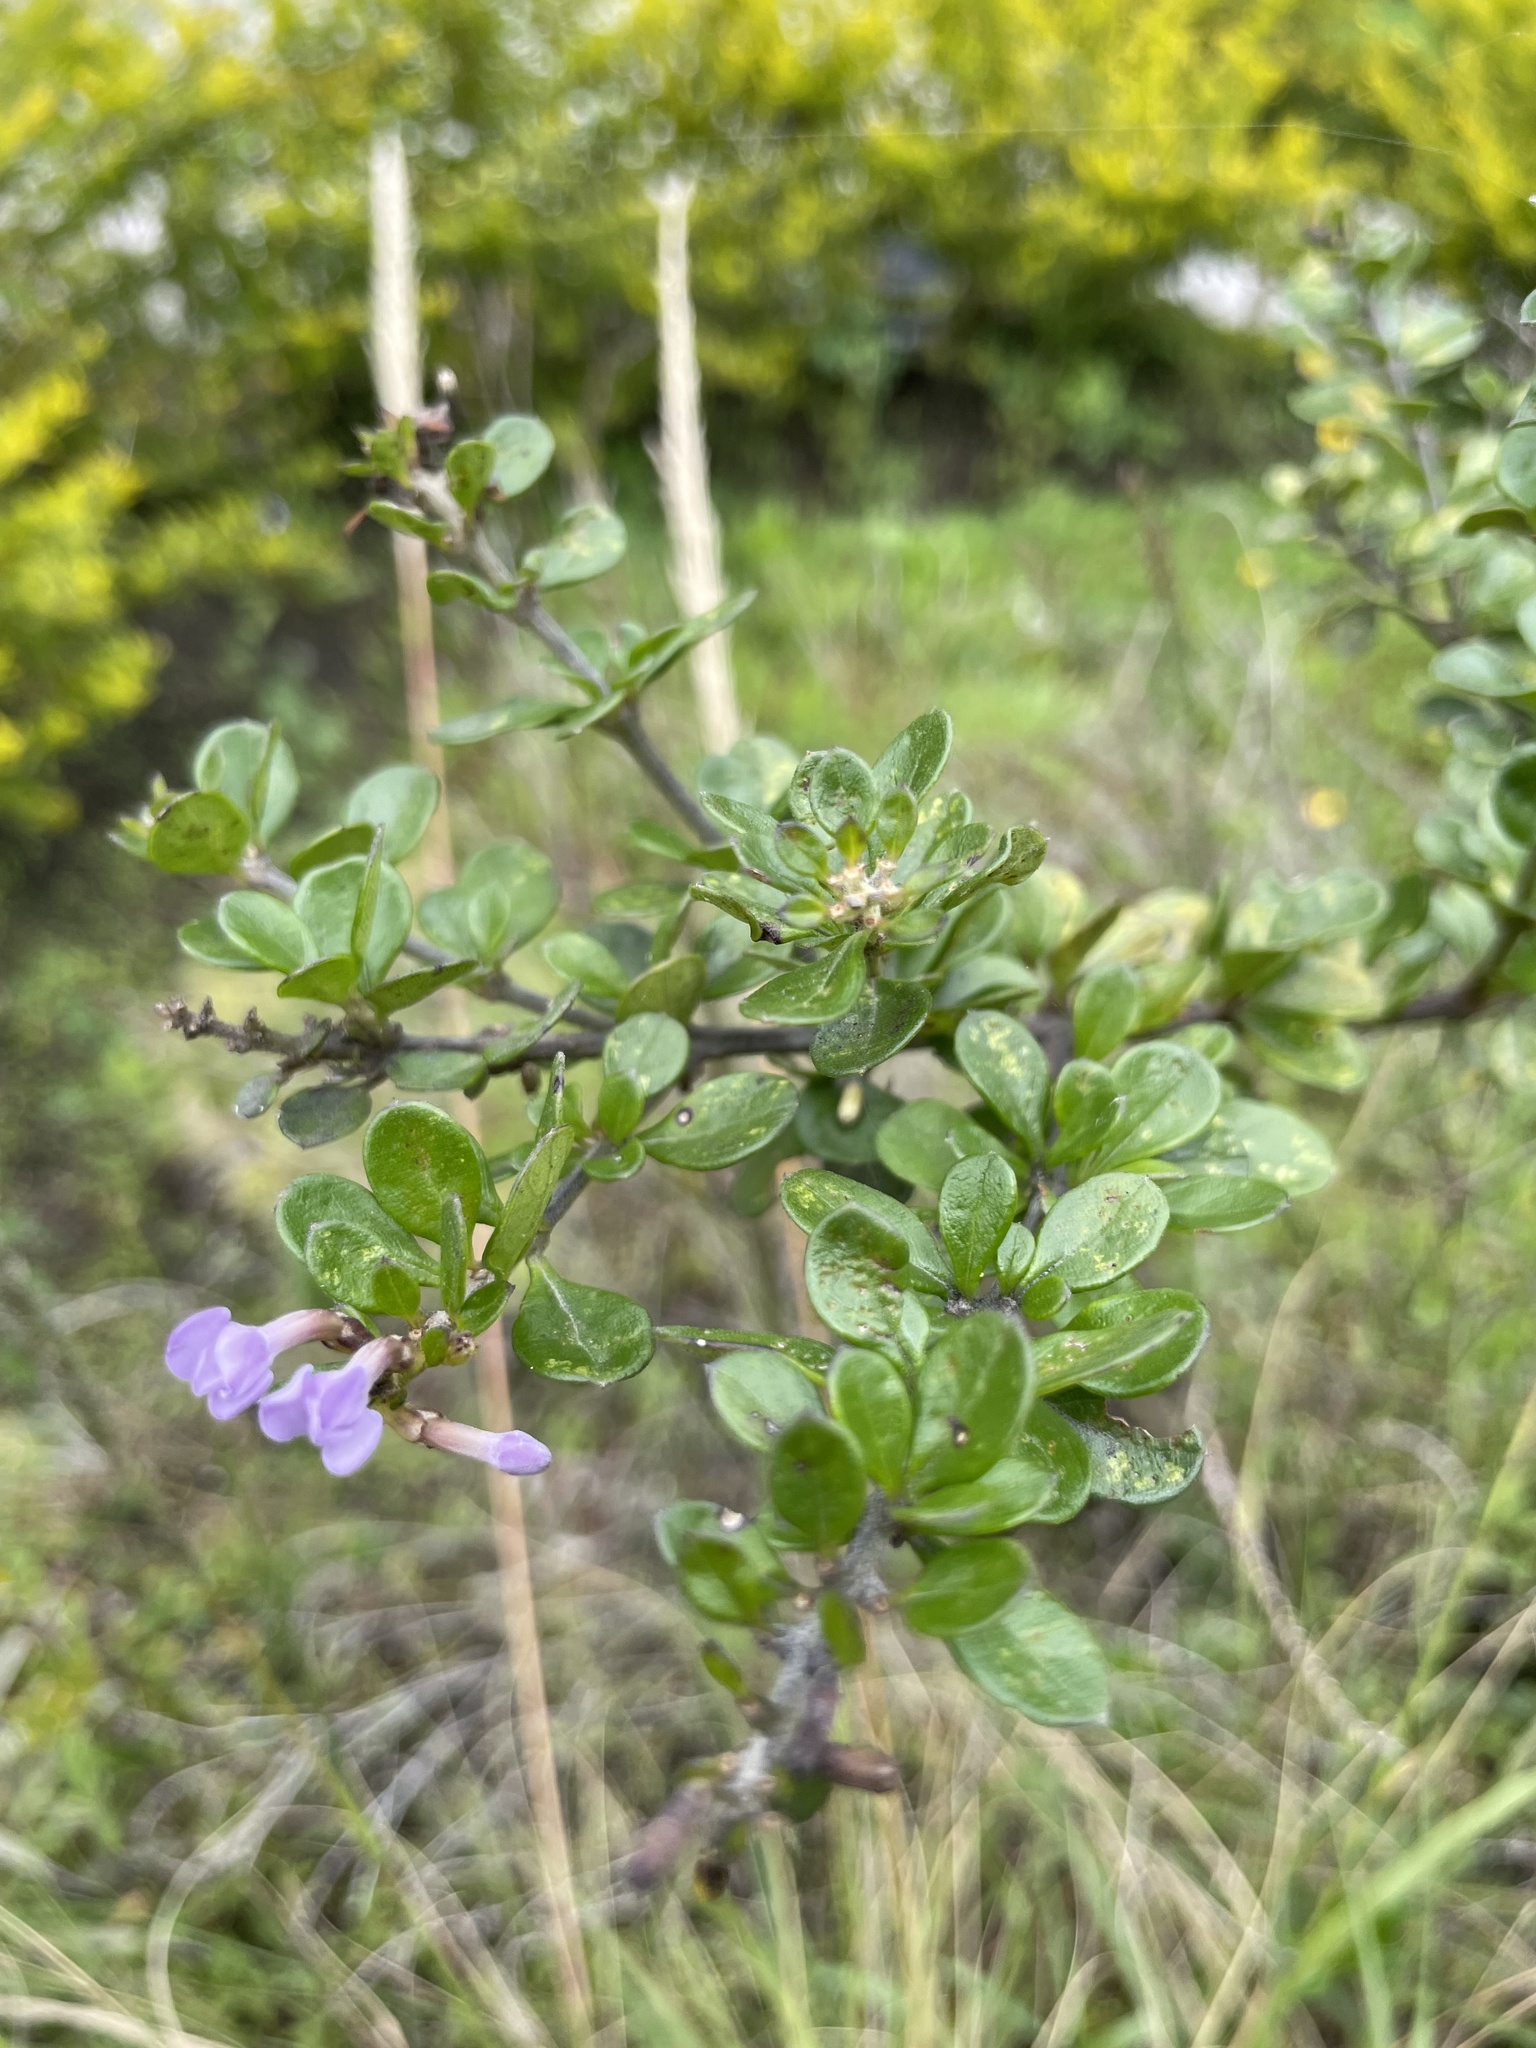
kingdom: Plantae
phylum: Tracheophyta
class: Magnoliopsida
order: Lamiales
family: Verbenaceae
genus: Duranta
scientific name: Duranta triacantha
